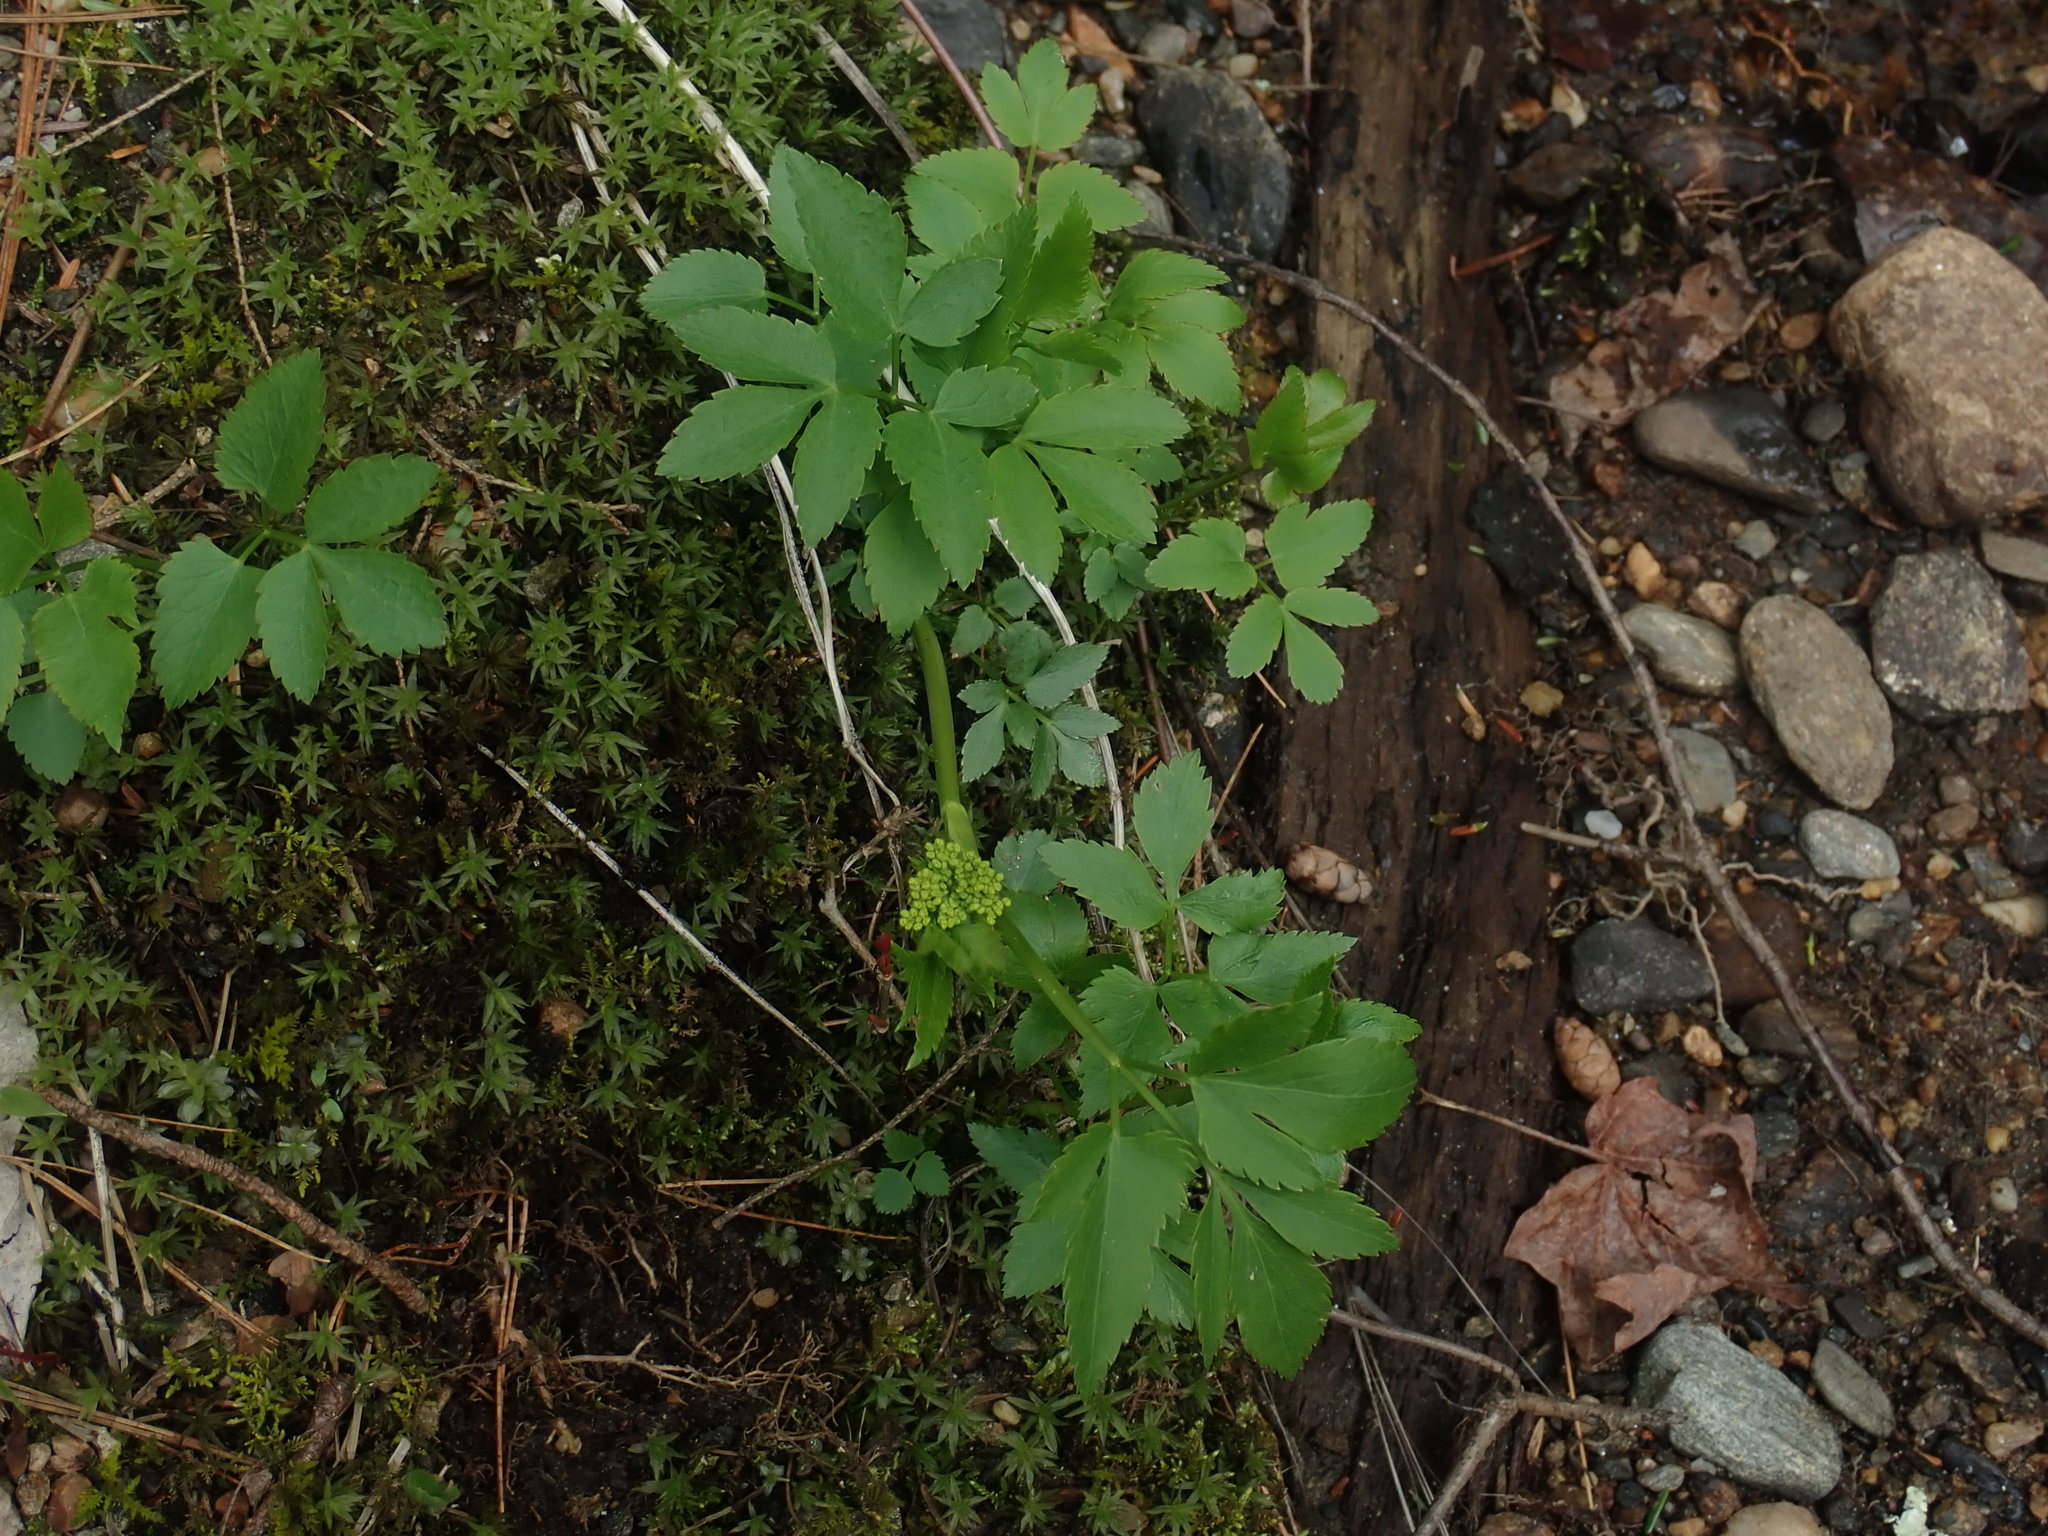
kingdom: Plantae
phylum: Tracheophyta
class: Magnoliopsida
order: Apiales
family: Apiaceae
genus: Zizia
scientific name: Zizia aurea
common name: Golden alexanders
